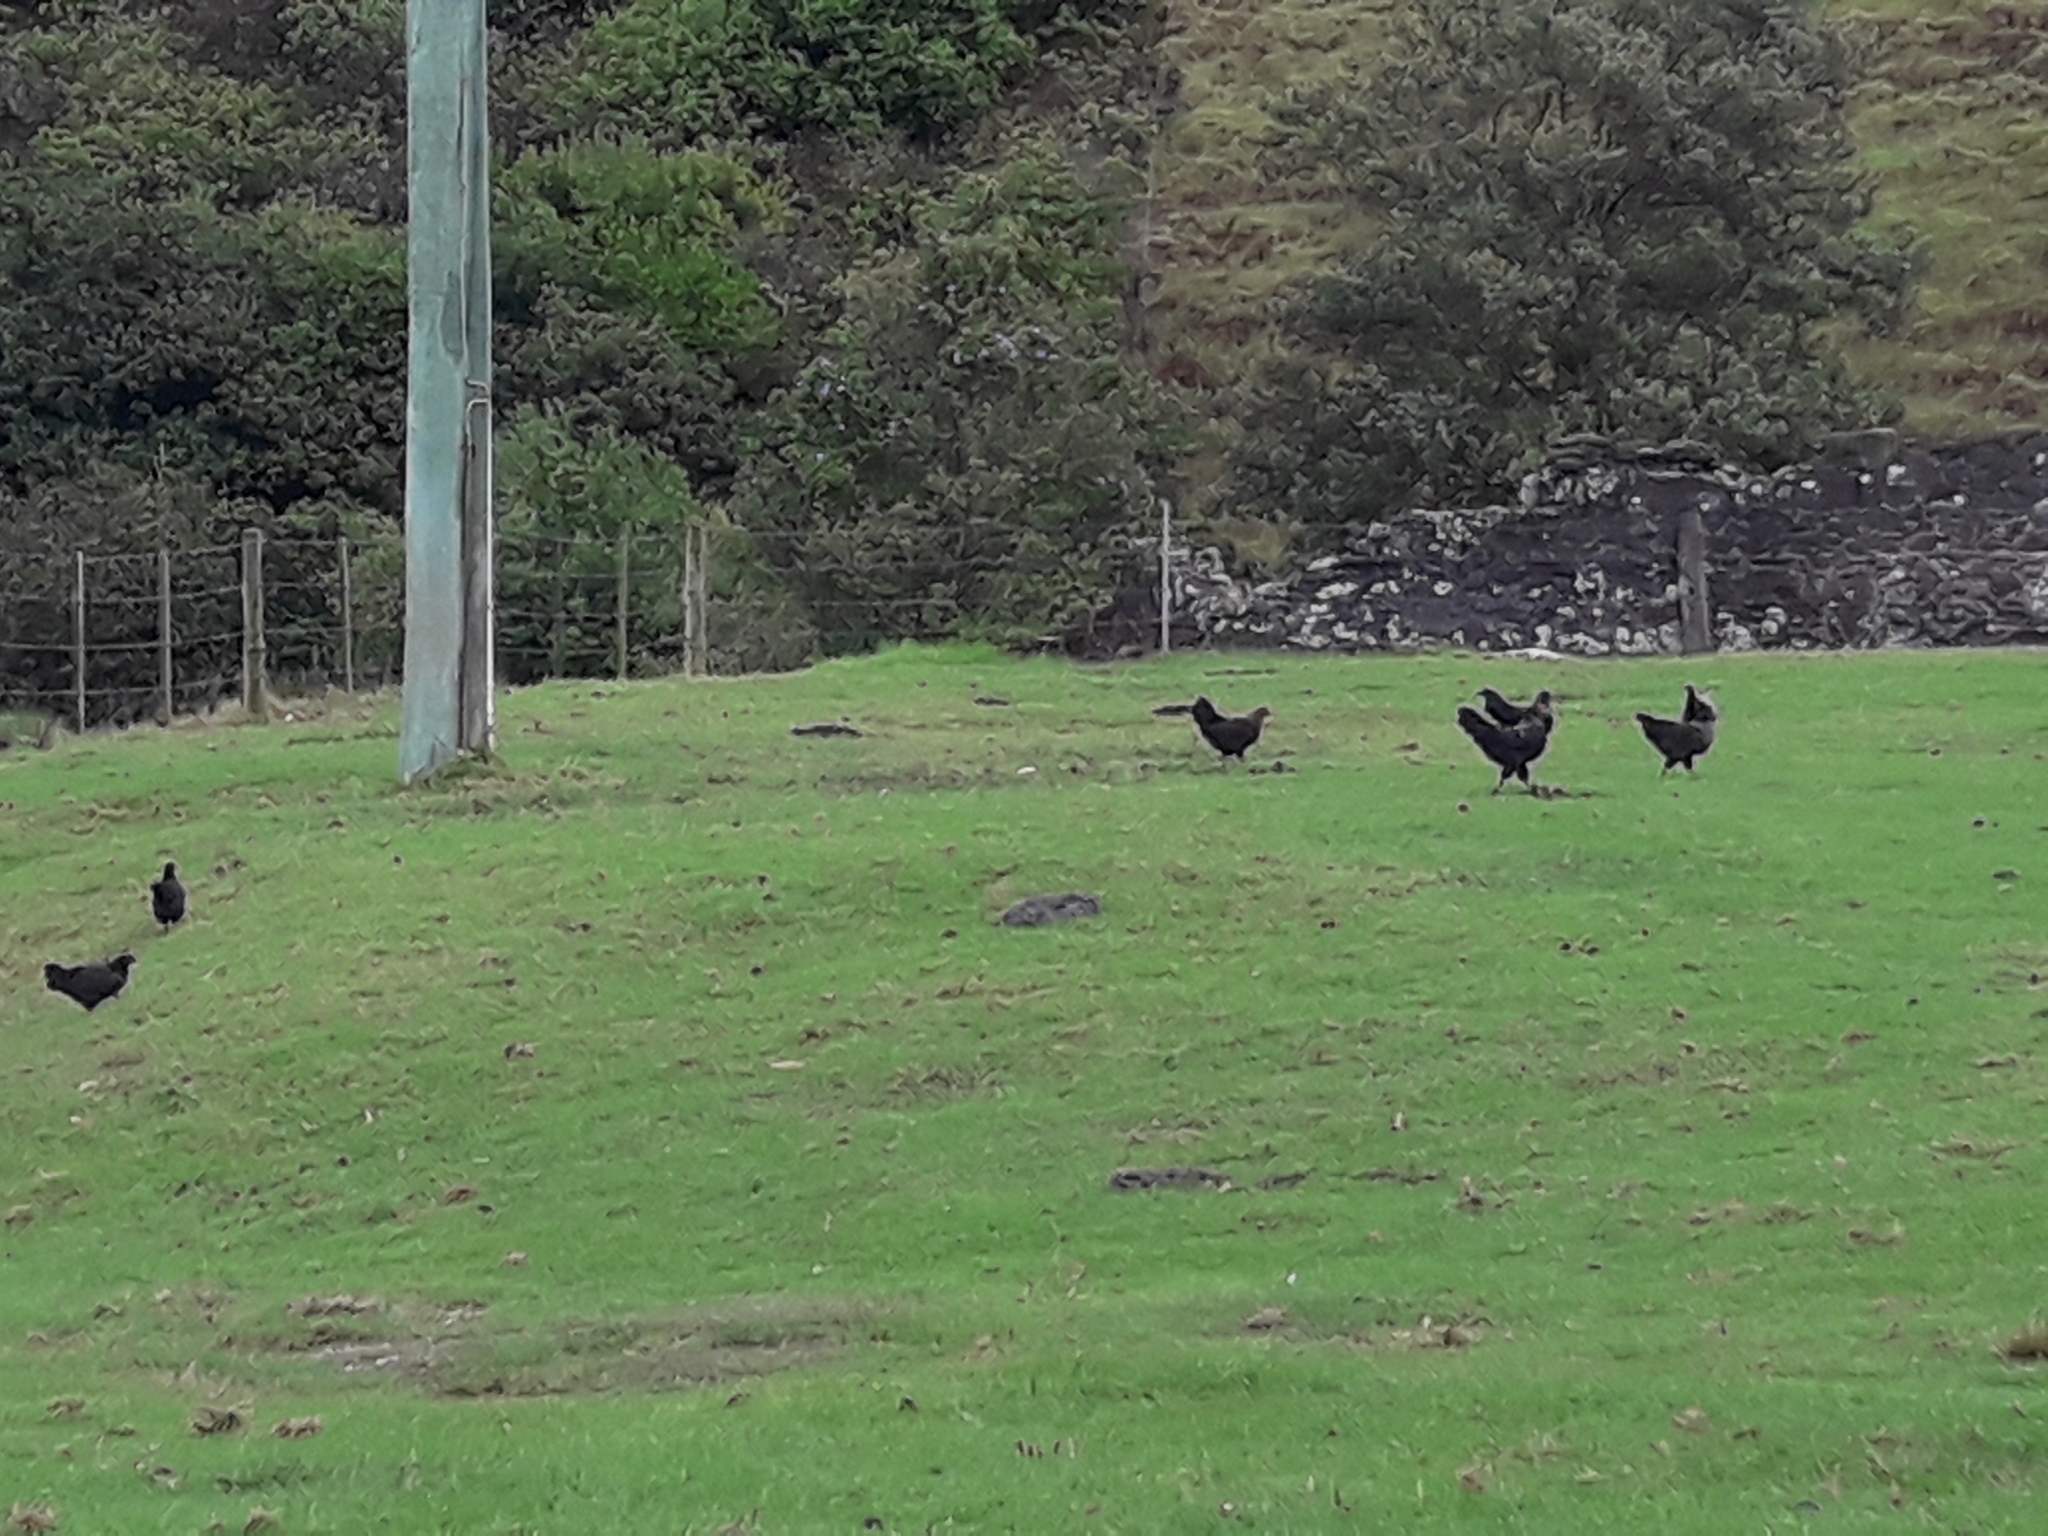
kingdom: Animalia
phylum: Chordata
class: Aves
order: Galliformes
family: Phasianidae
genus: Gallus
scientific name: Gallus gallus
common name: Red junglefowl
